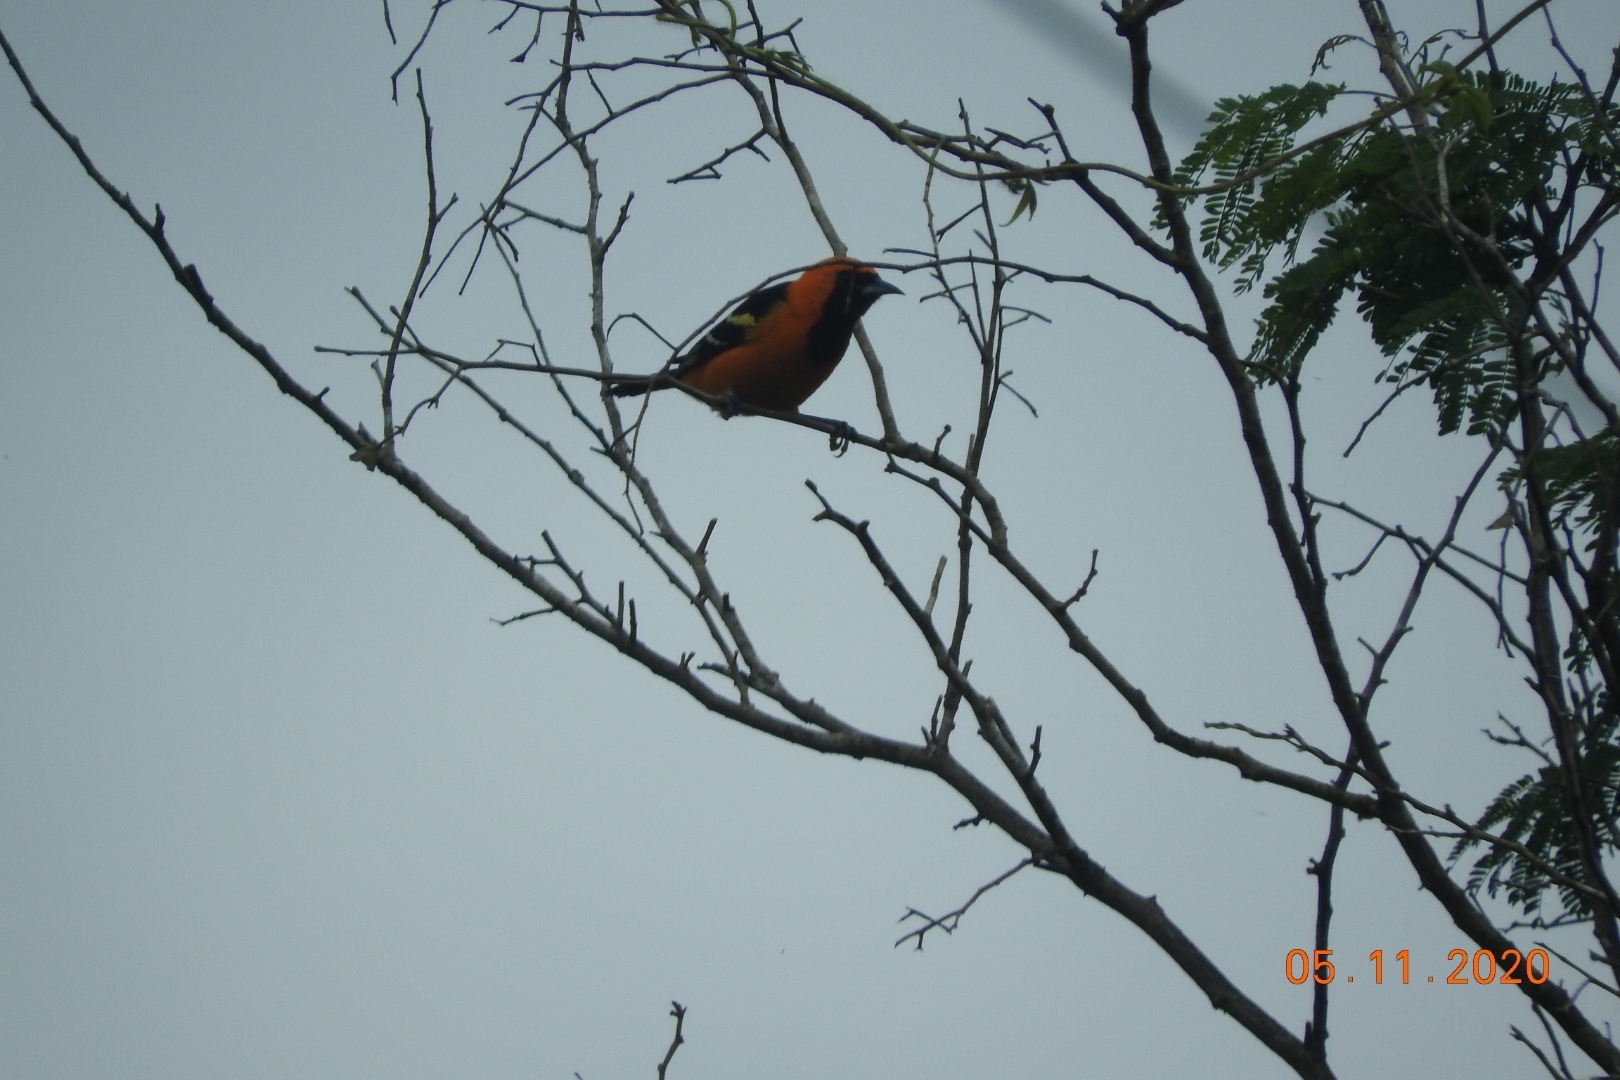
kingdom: Animalia
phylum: Chordata
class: Aves
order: Passeriformes
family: Icteridae
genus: Icterus
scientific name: Icterus cucullatus
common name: Hooded oriole
